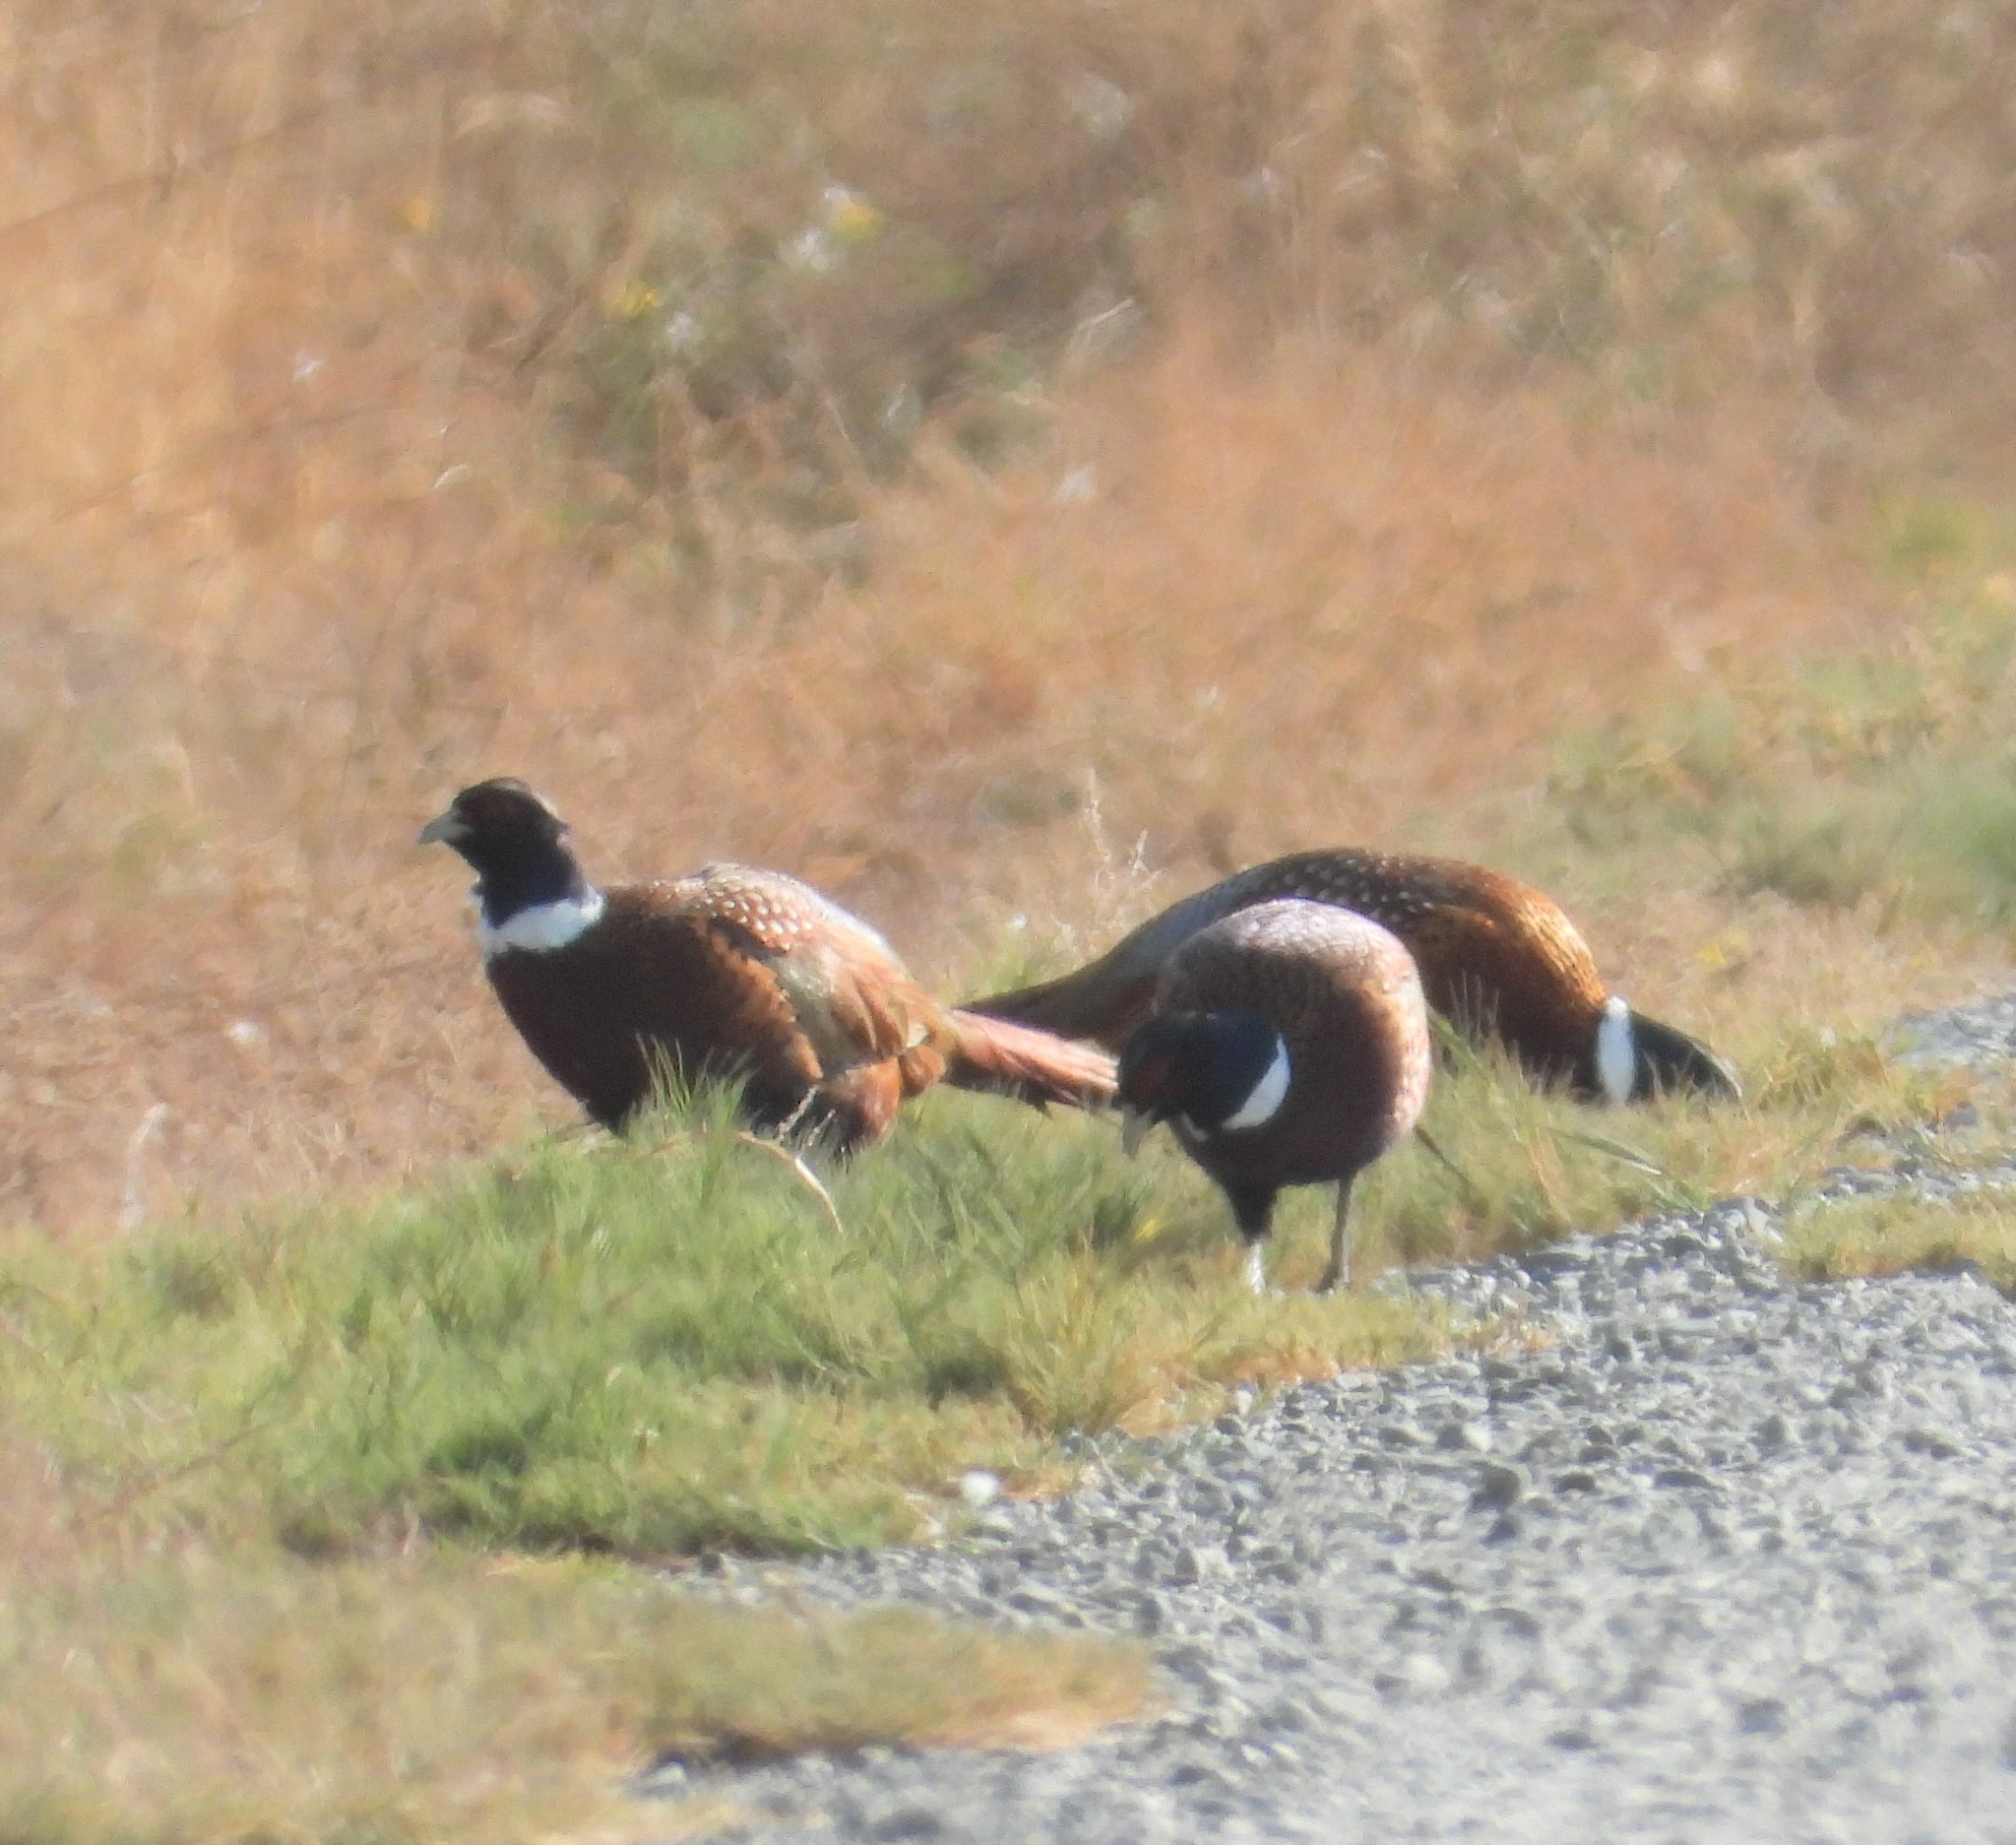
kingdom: Animalia
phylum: Chordata
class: Aves
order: Galliformes
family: Phasianidae
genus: Phasianus
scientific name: Phasianus colchicus
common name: Common pheasant
